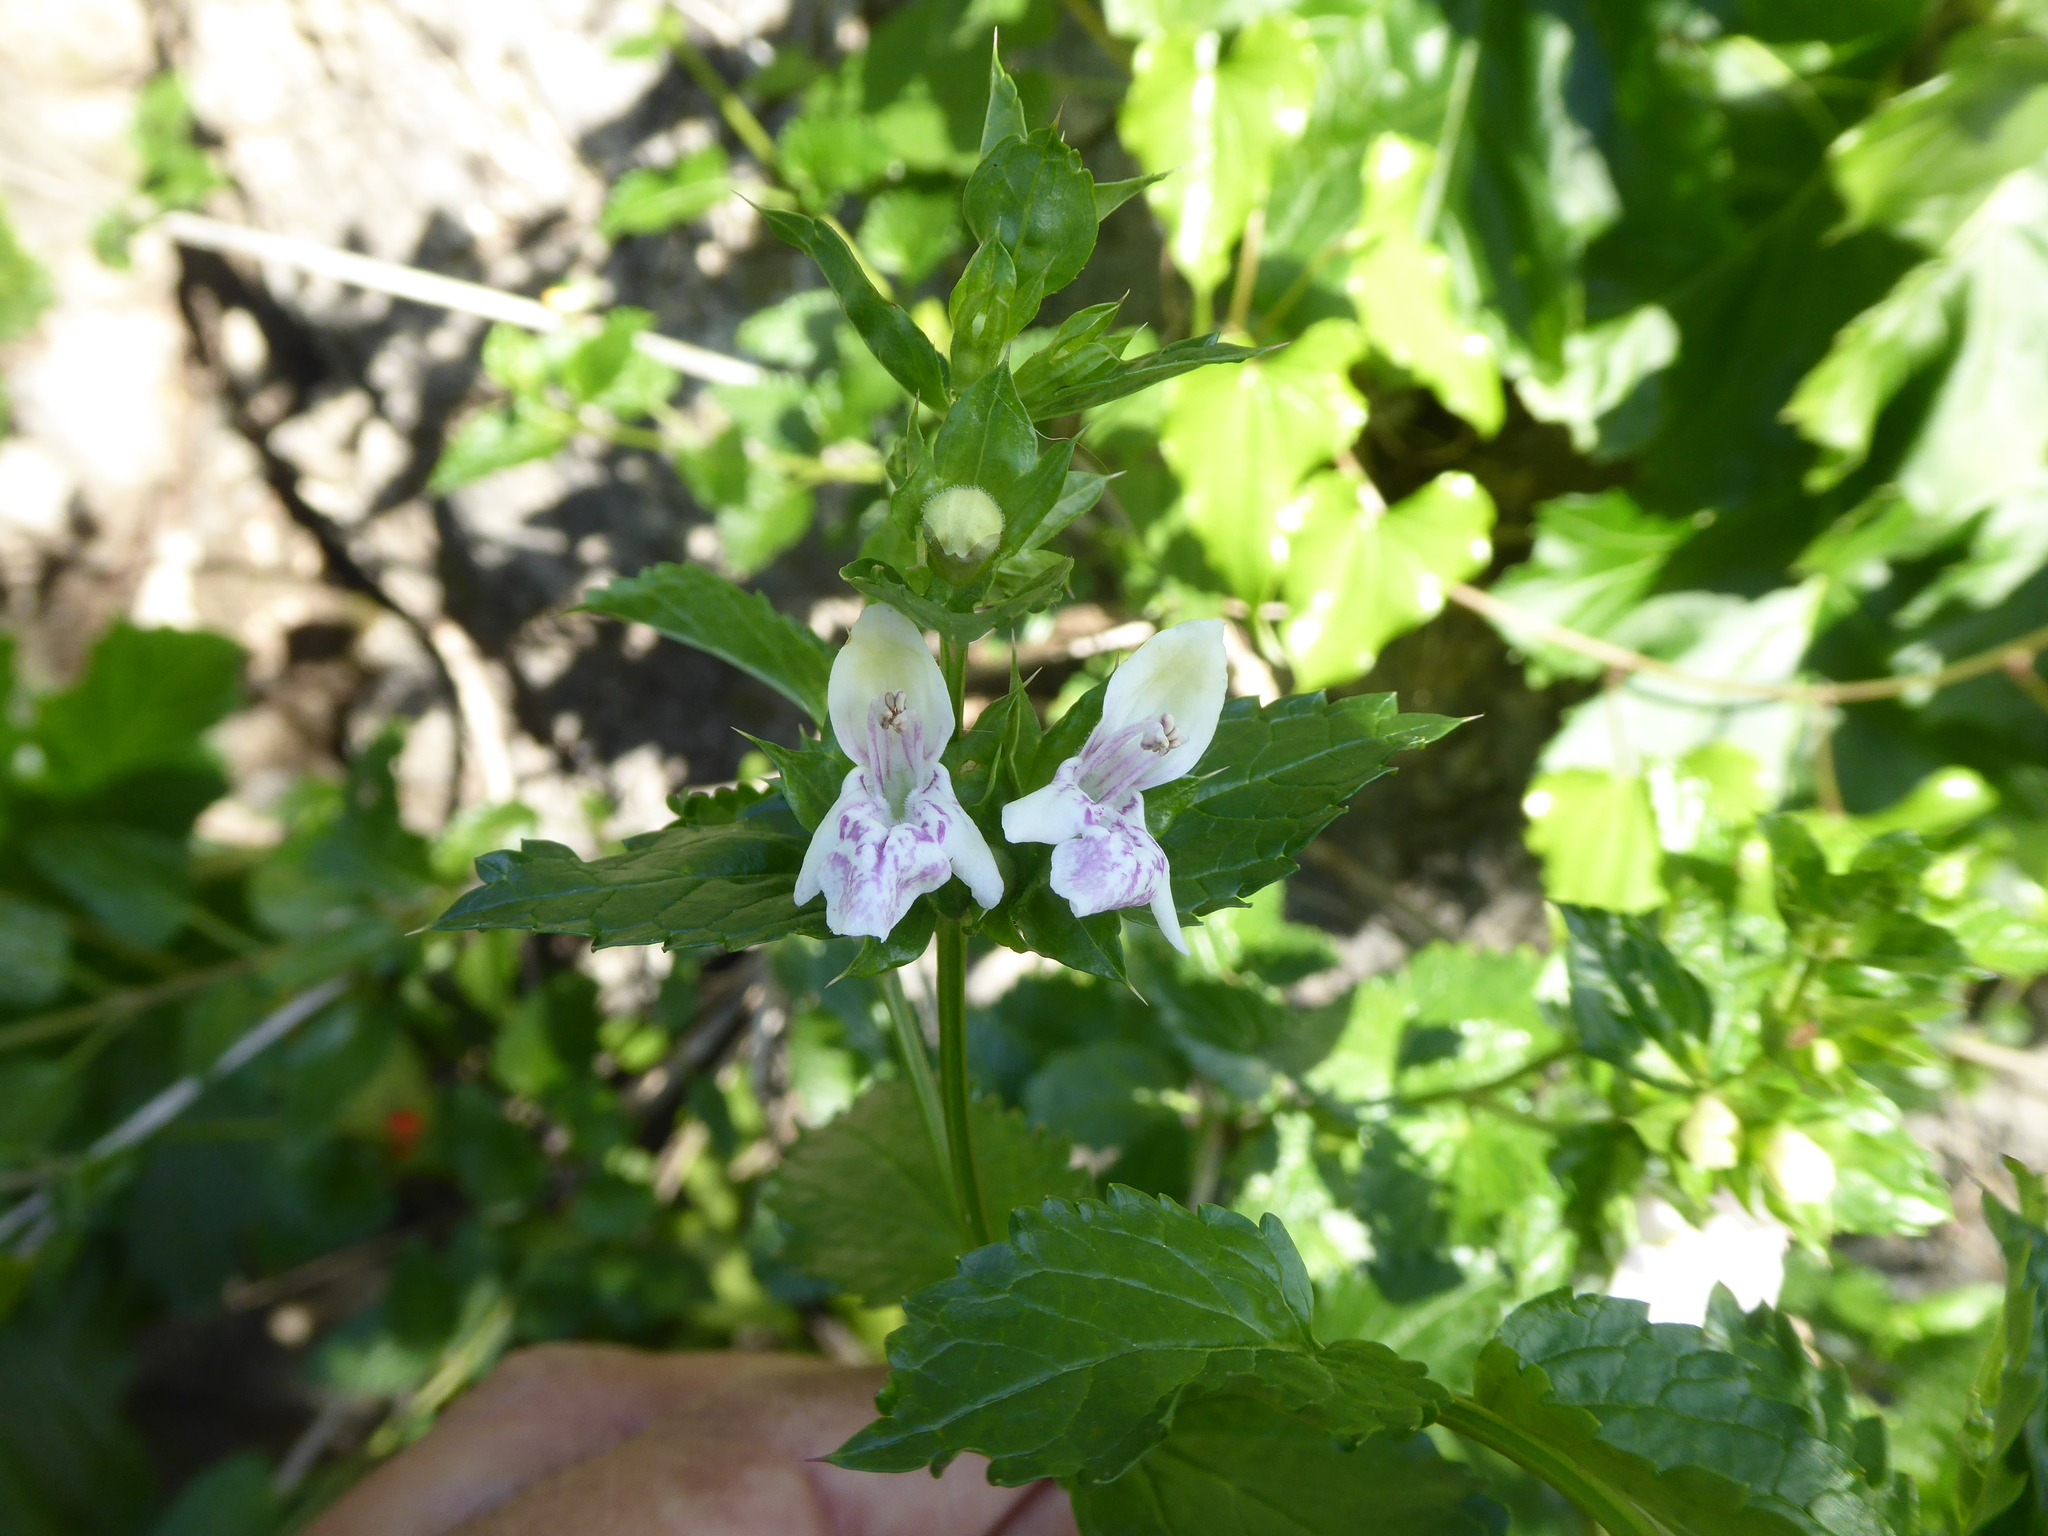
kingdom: Plantae
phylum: Tracheophyta
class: Magnoliopsida
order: Lamiales
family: Lamiaceae
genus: Prasium
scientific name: Prasium majus
